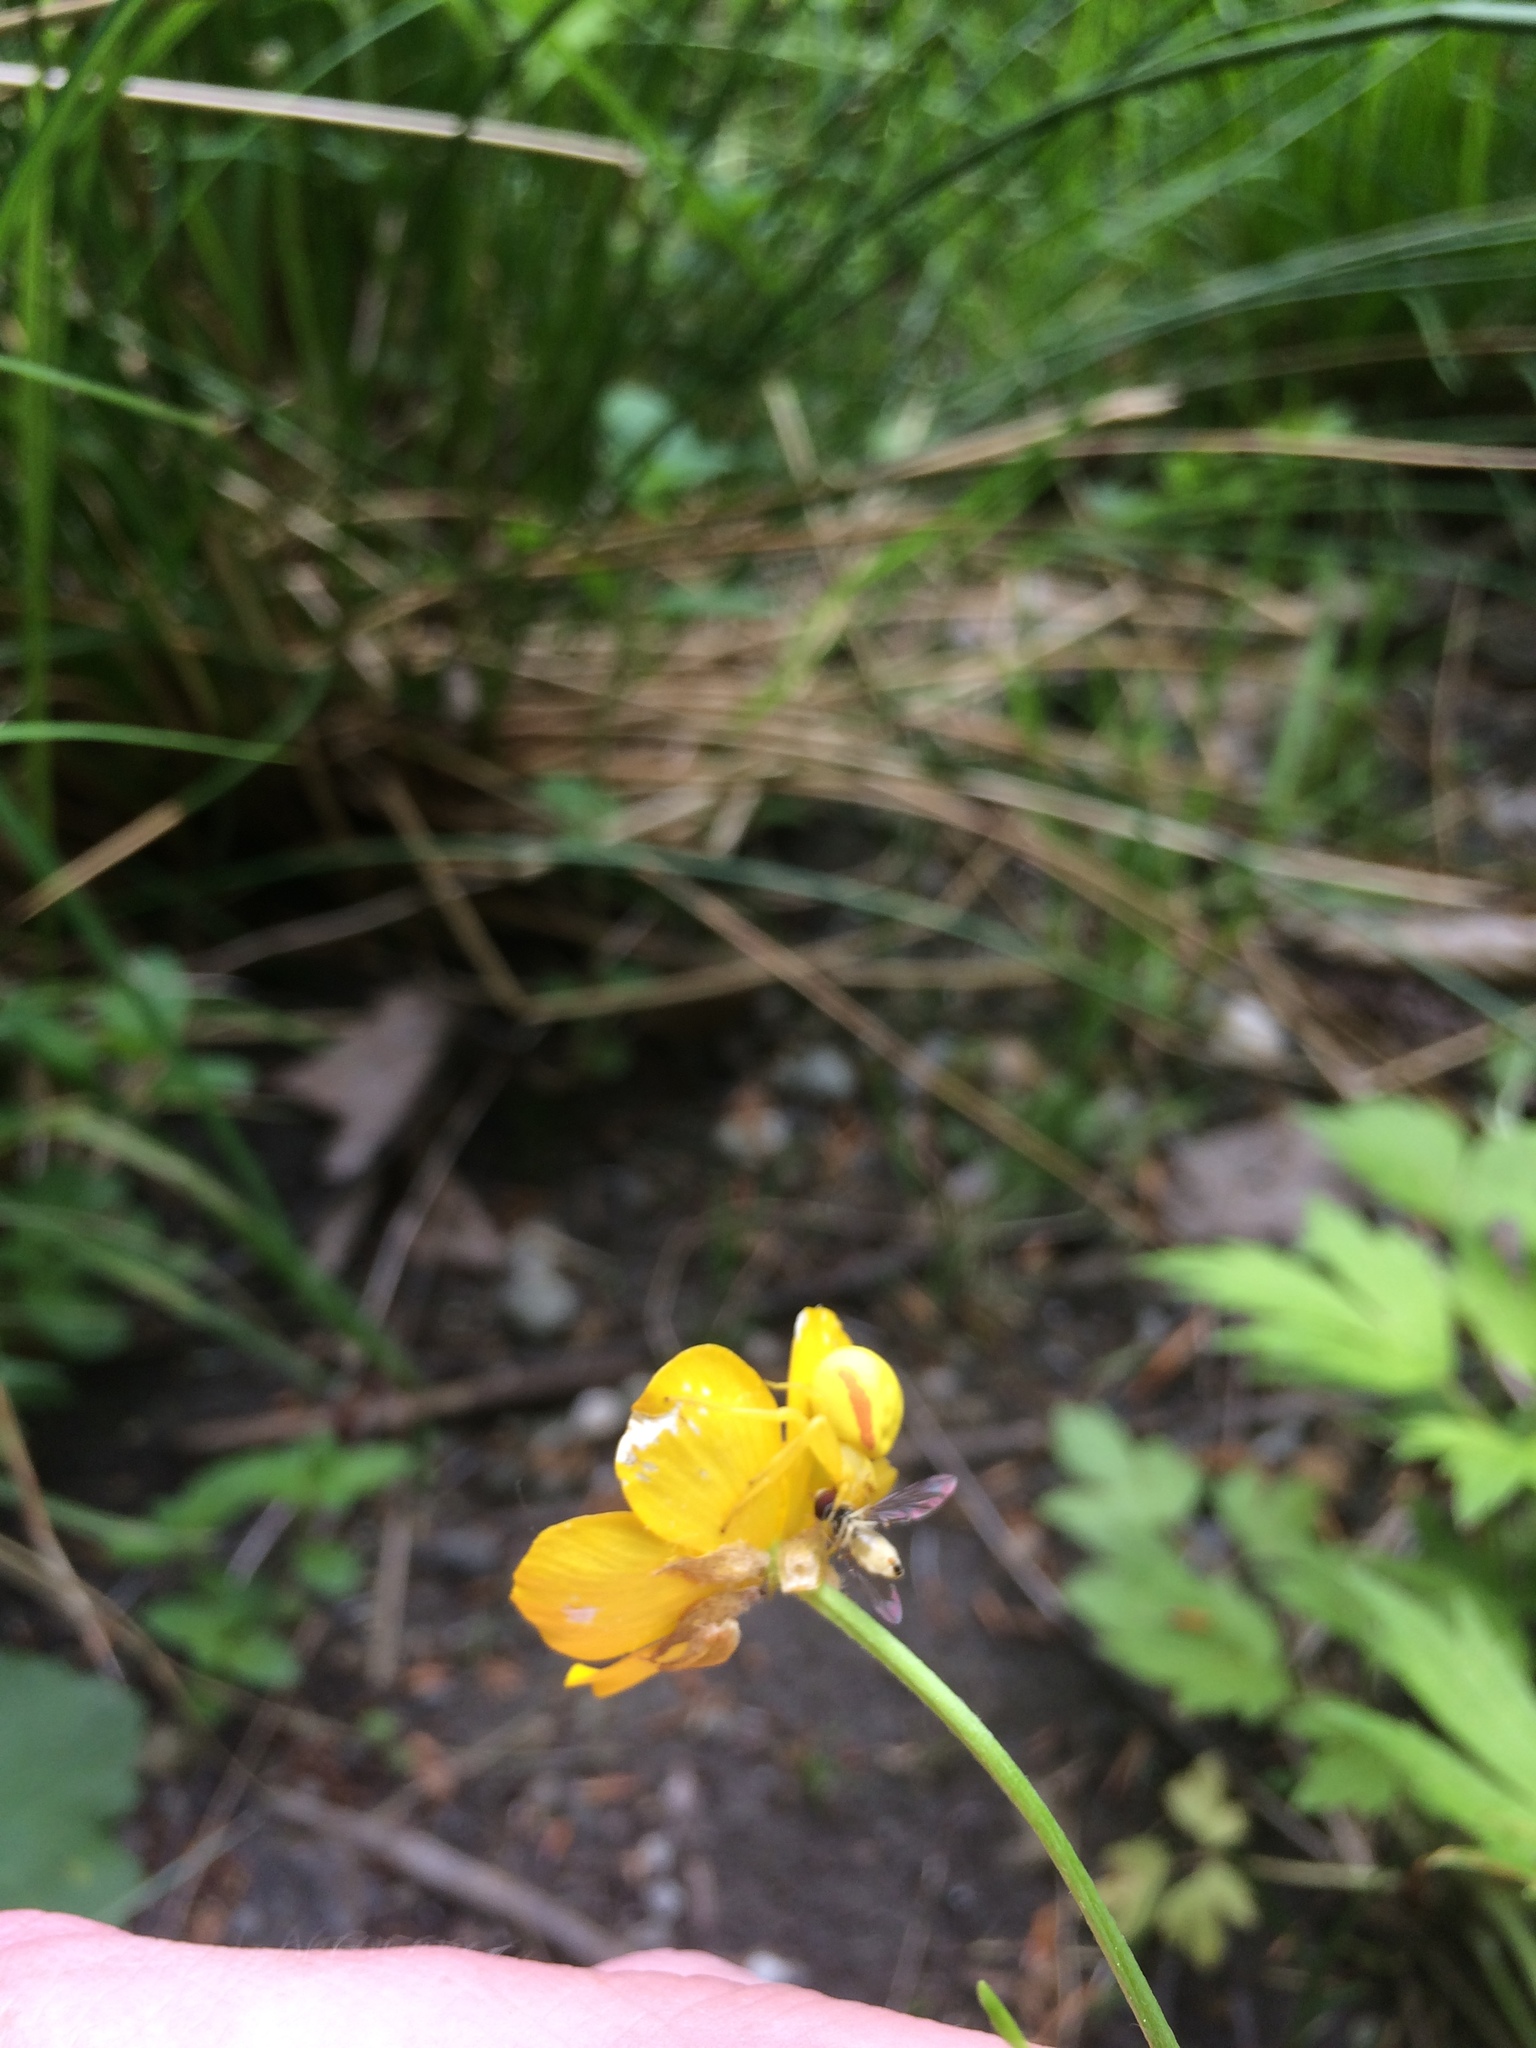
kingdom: Animalia
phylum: Arthropoda
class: Arachnida
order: Araneae
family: Thomisidae
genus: Misumena
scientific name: Misumena vatia
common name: Goldenrod crab spider
